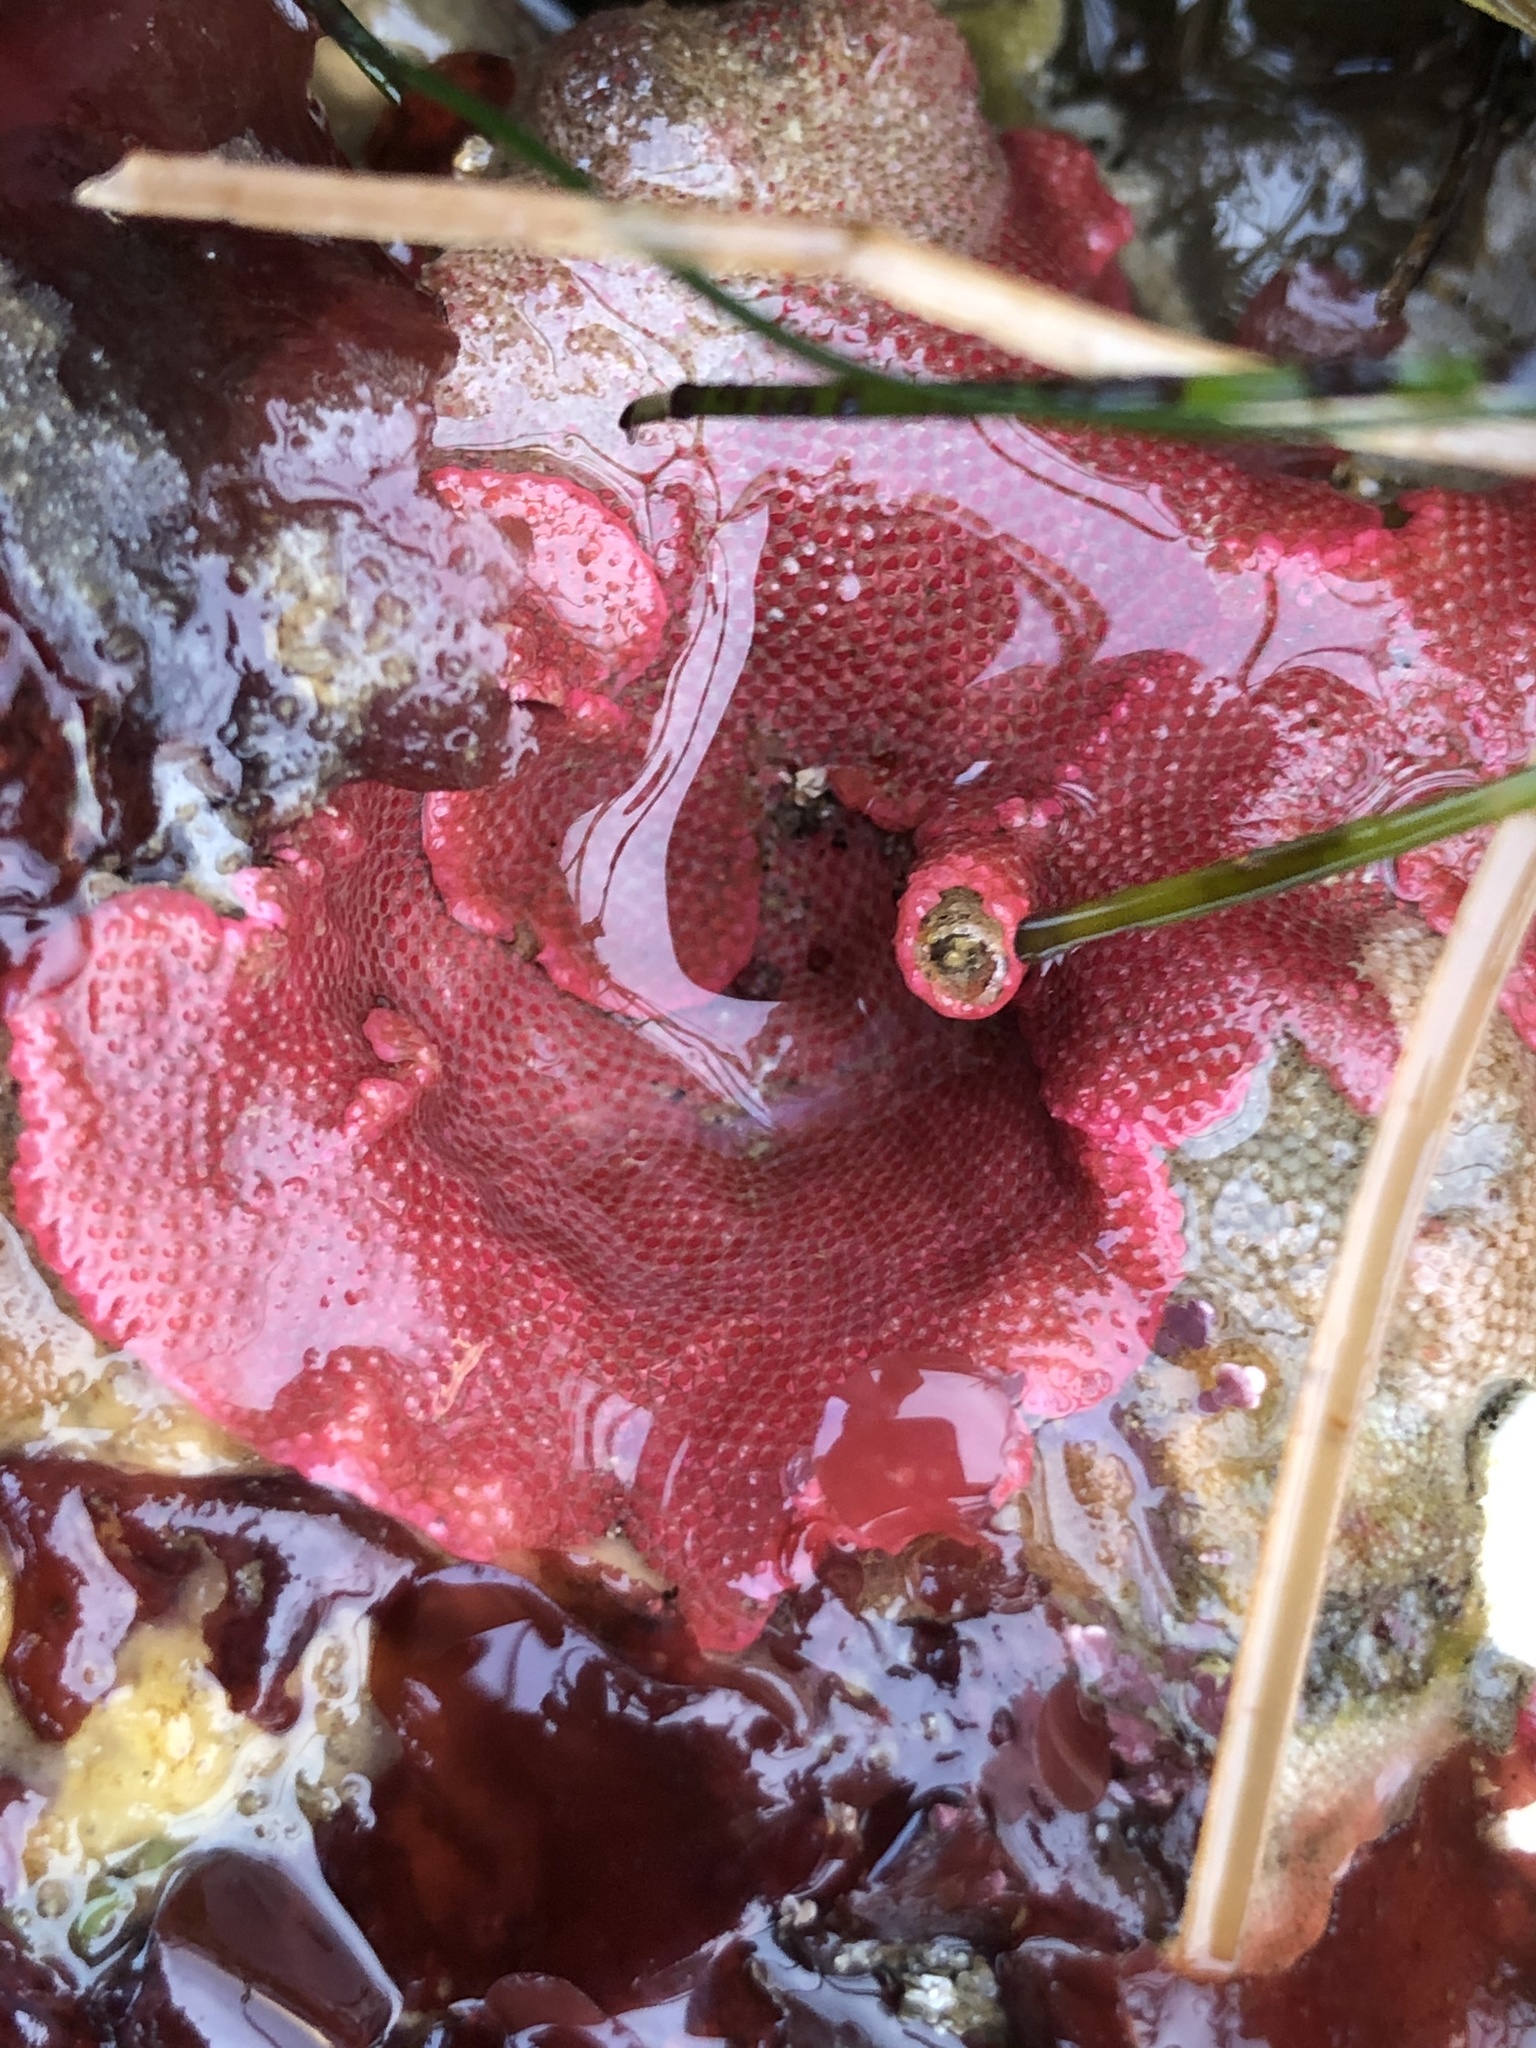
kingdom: Animalia
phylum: Bryozoa
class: Gymnolaemata
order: Cheilostomatida
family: Eurystomellidae
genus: Integripelta
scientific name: Integripelta bilabiata
